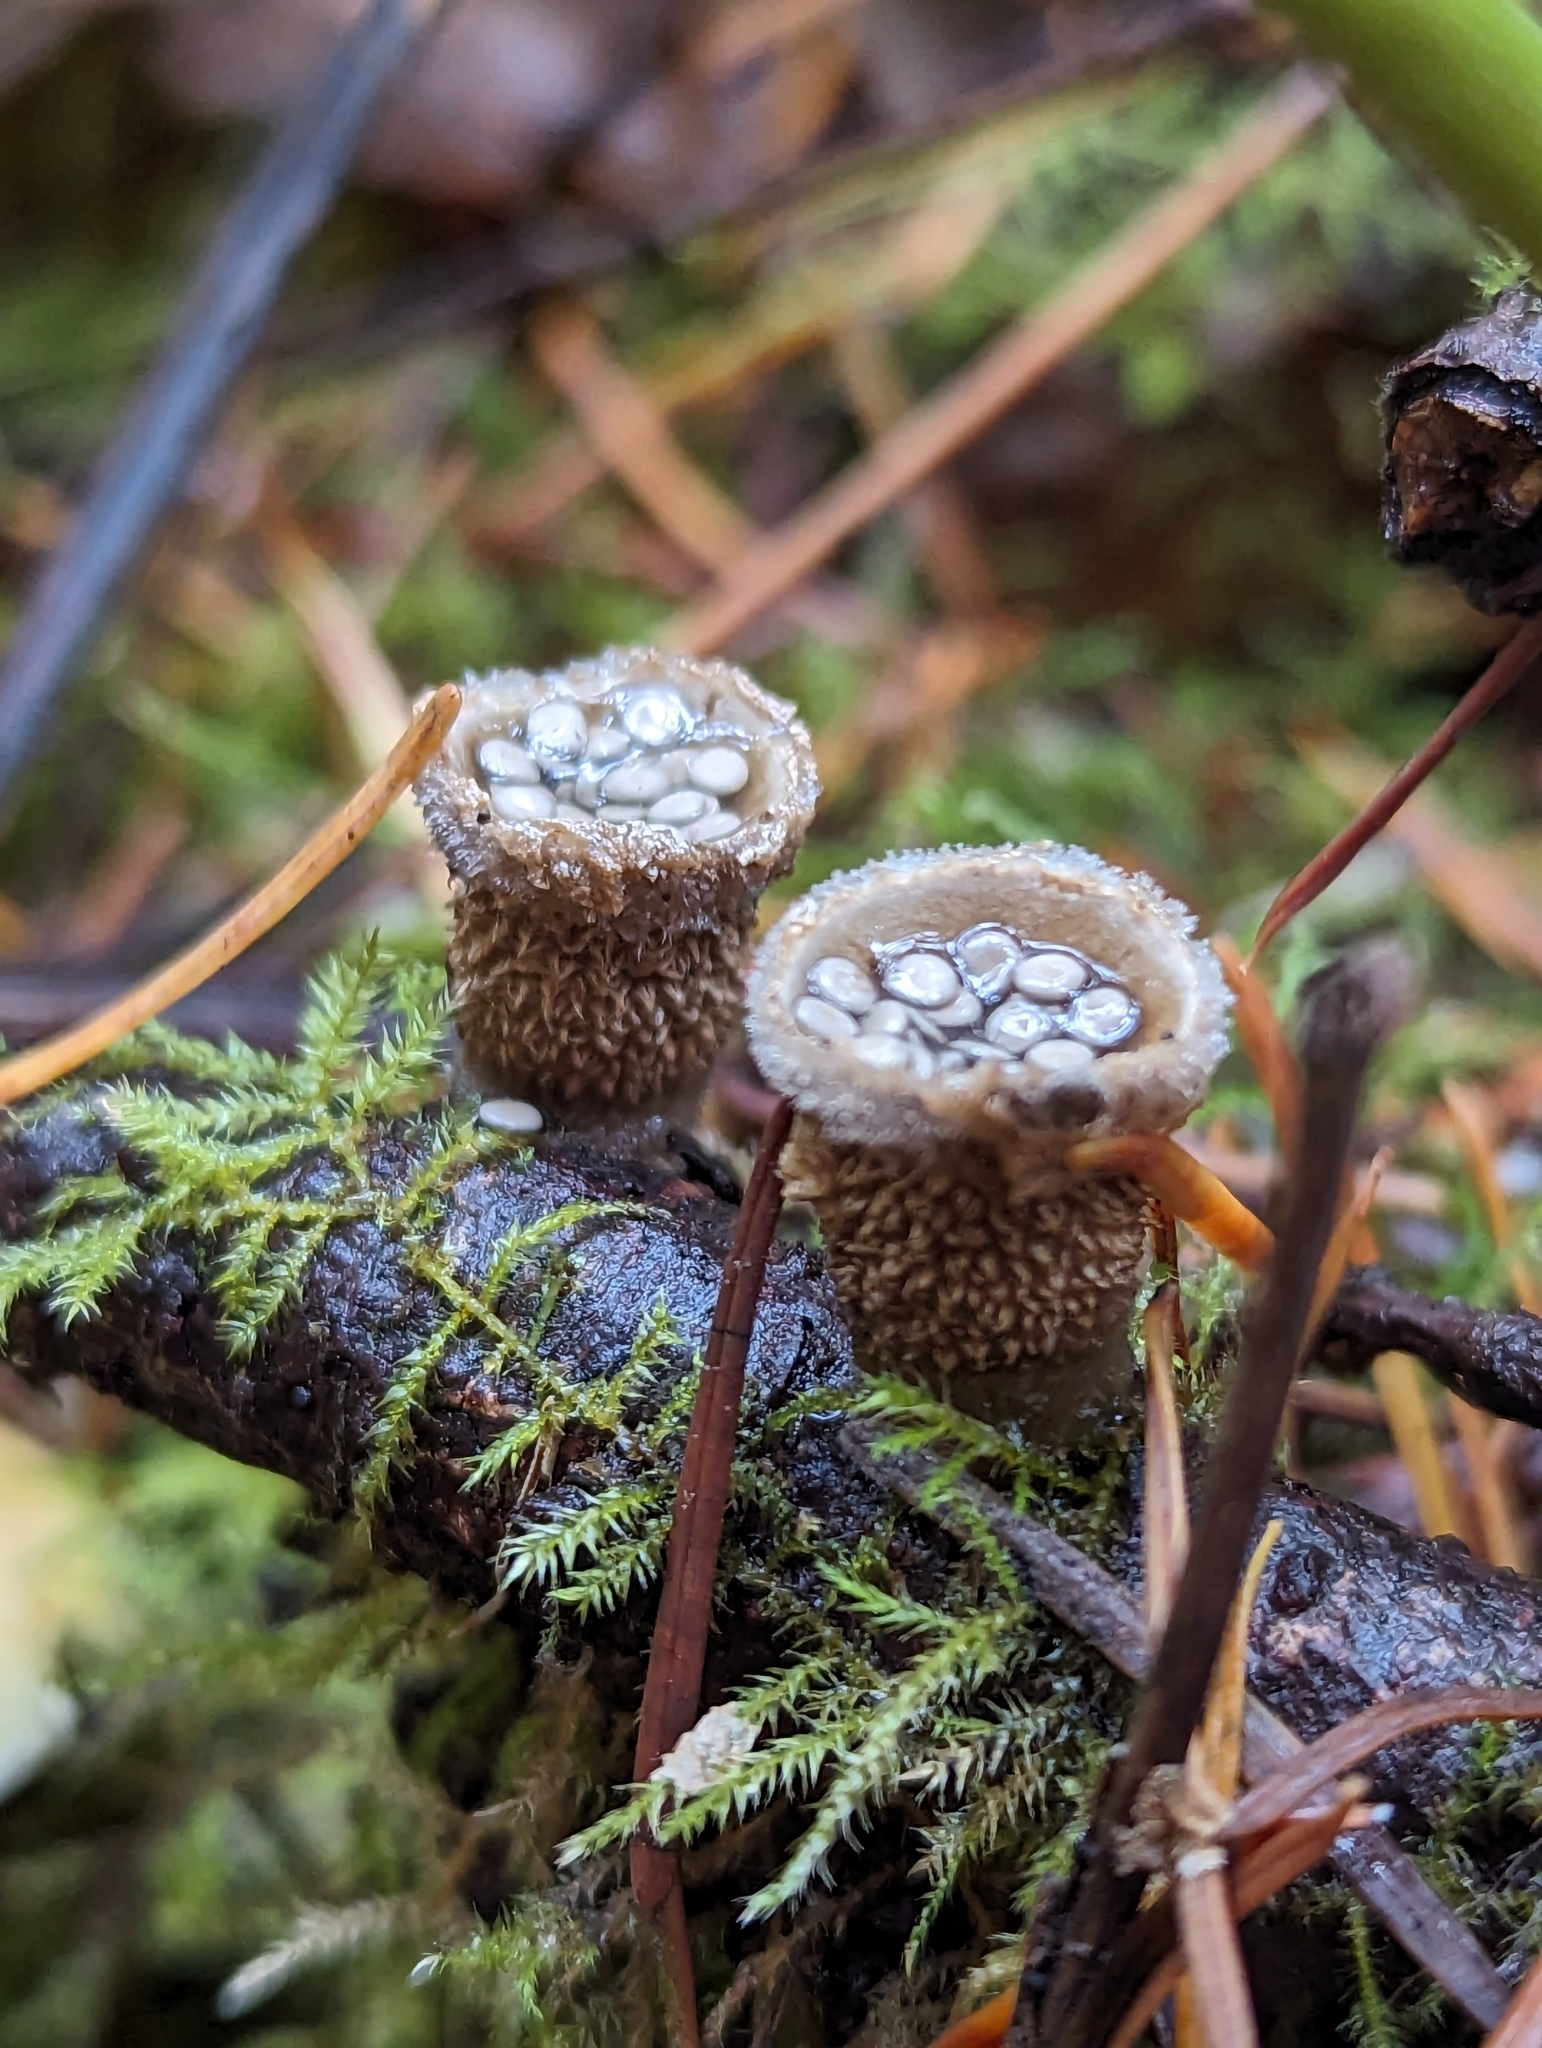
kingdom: Fungi
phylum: Basidiomycota
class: Agaricomycetes
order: Agaricales
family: Agaricaceae
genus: Nidula
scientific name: Nidula candida
